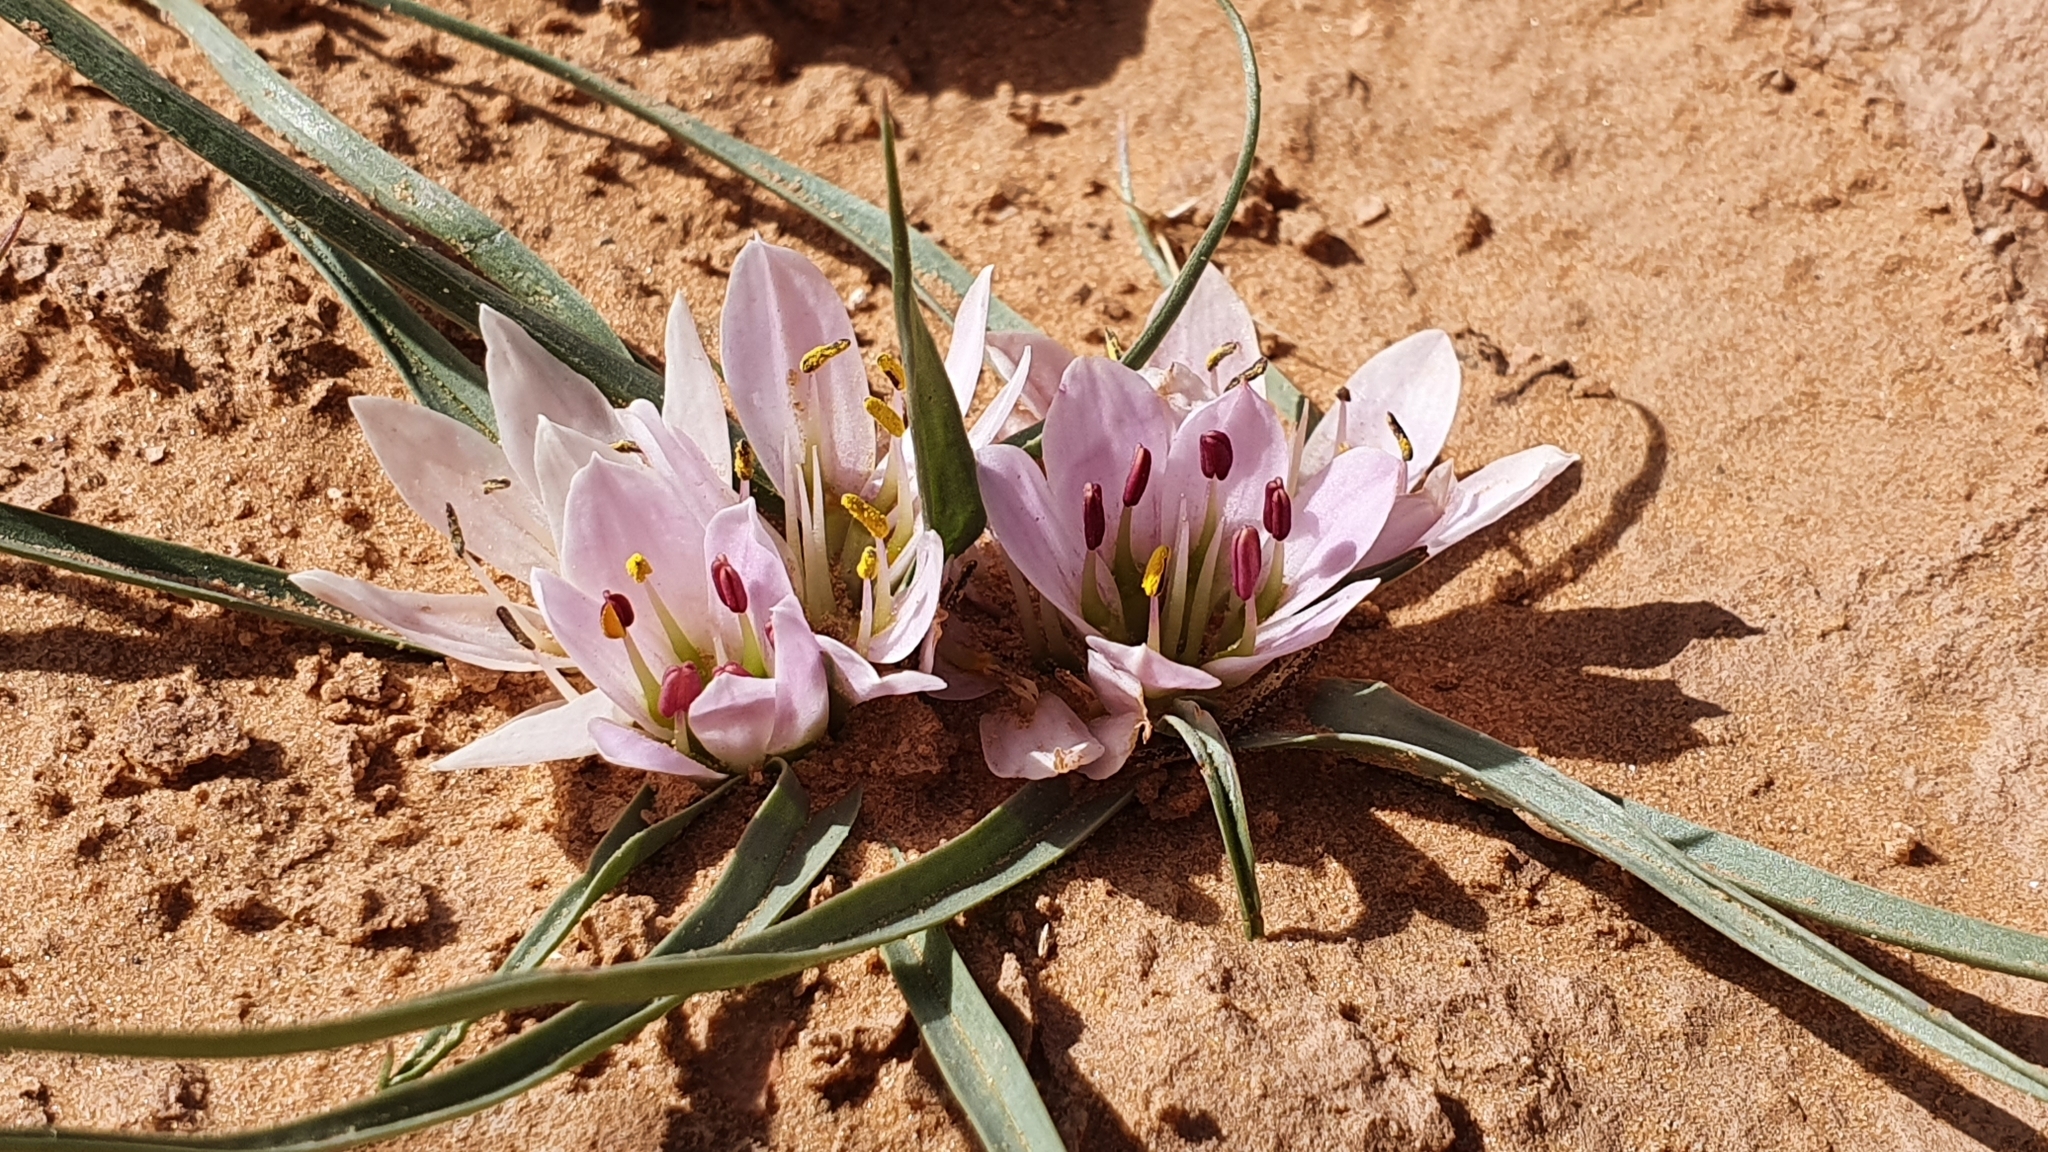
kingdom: Plantae
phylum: Tracheophyta
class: Liliopsida
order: Liliales
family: Colchicaceae
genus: Colchicum
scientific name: Colchicum gramineum
